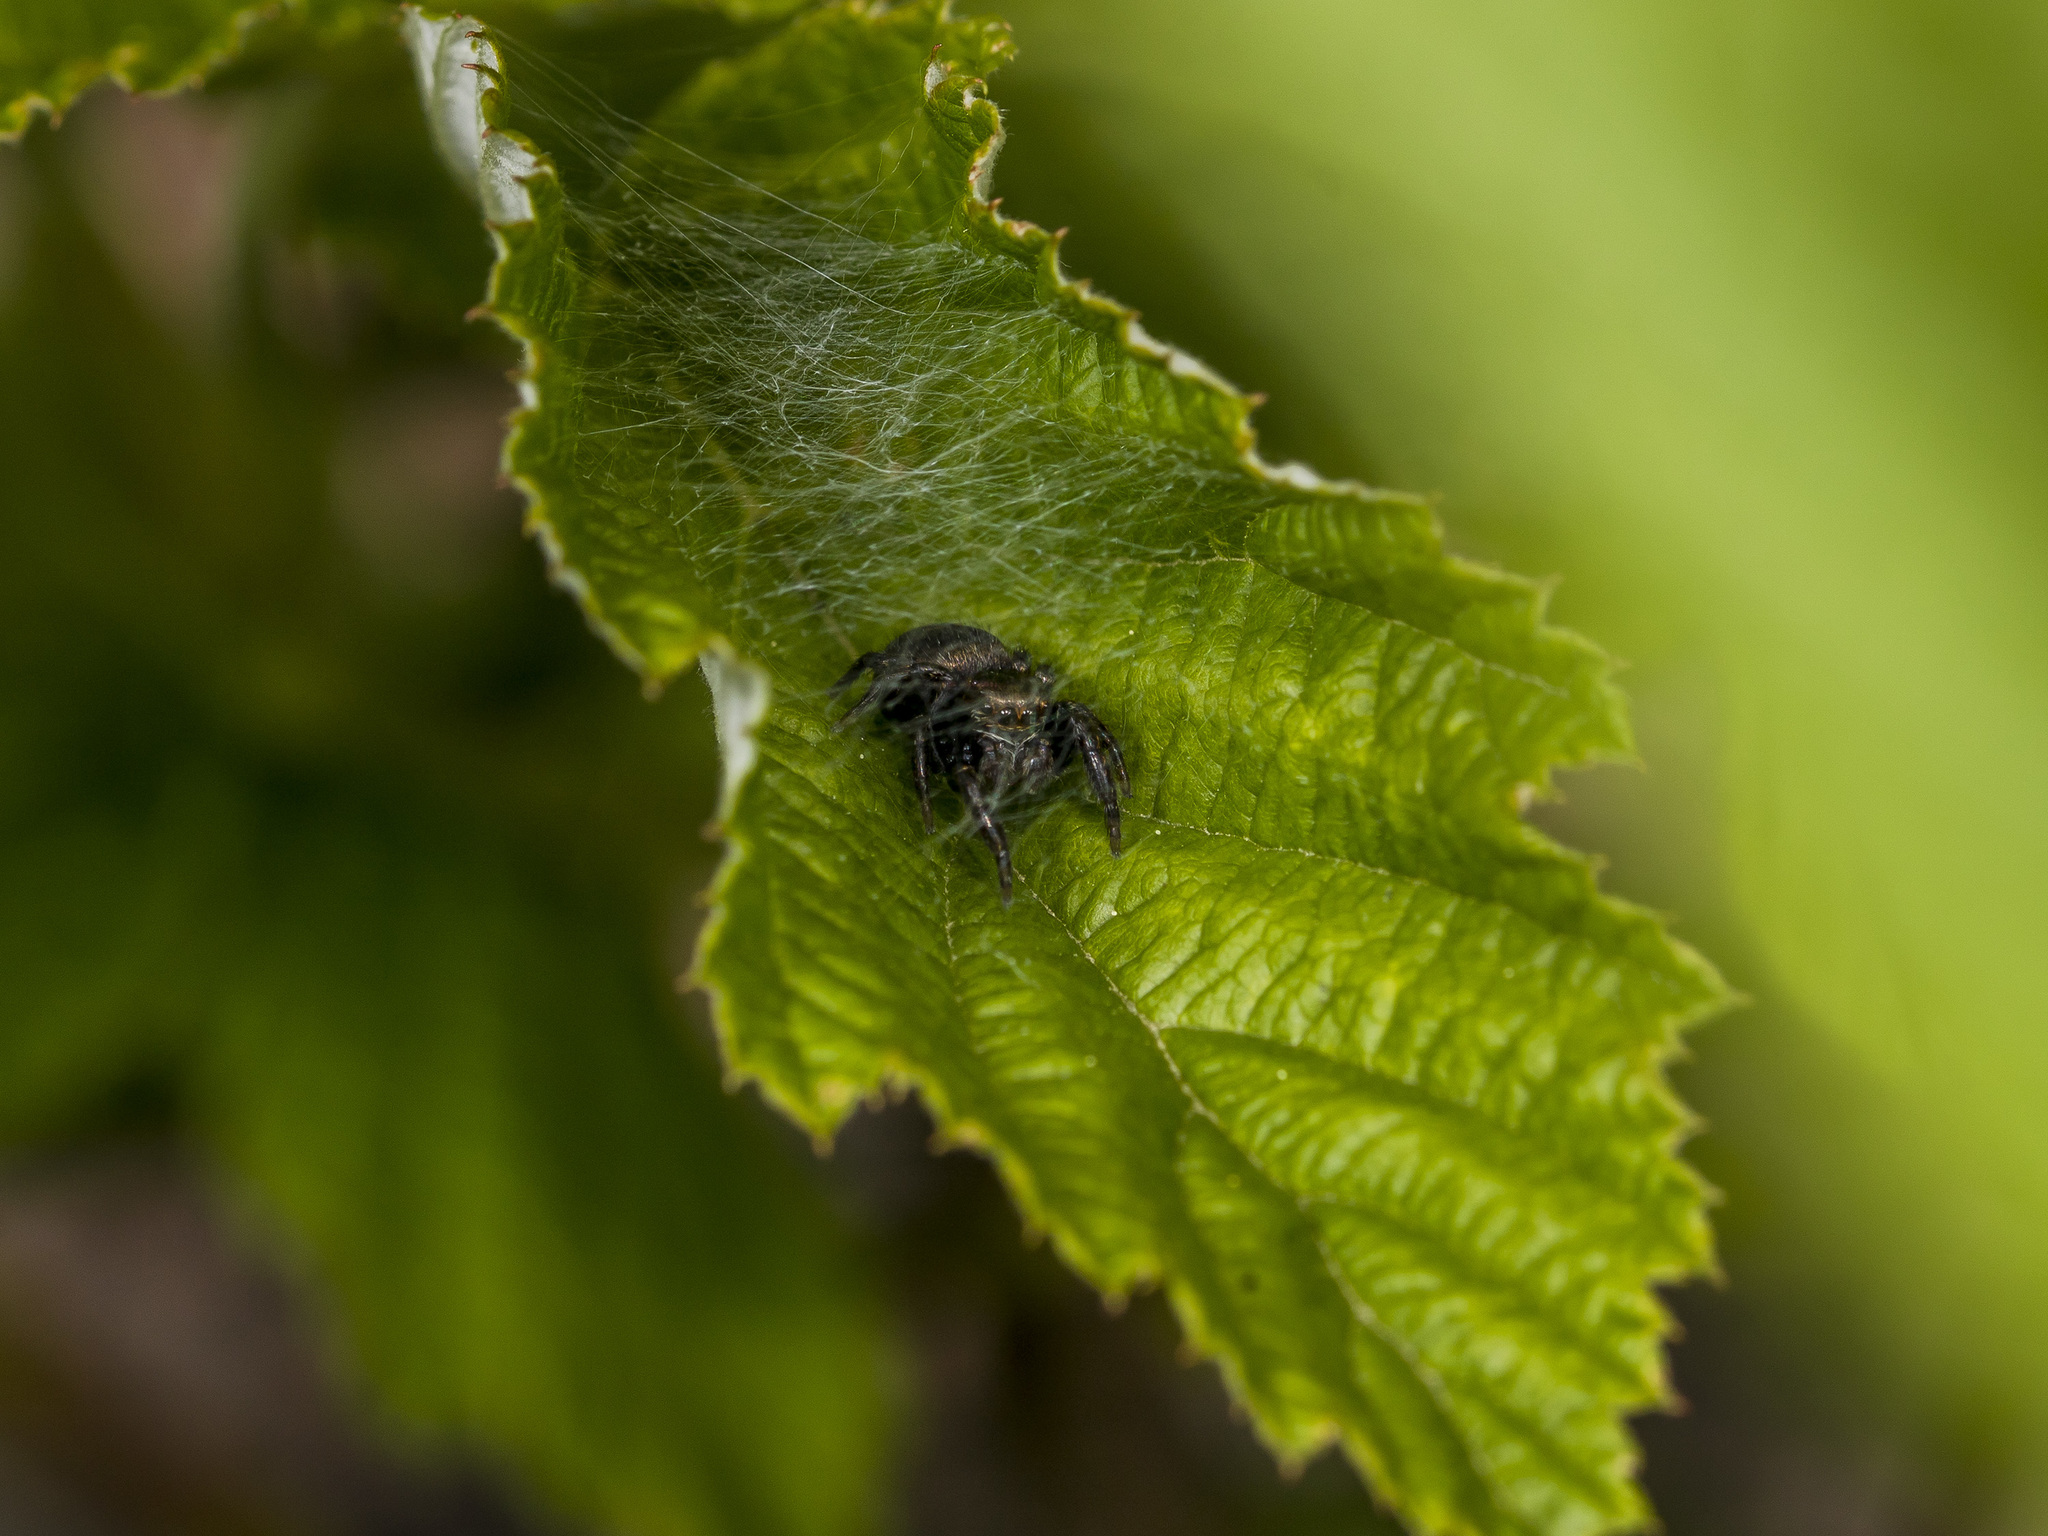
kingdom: Animalia
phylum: Arthropoda
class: Arachnida
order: Araneae
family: Salticidae
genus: Evarcha
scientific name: Evarcha arcuata
